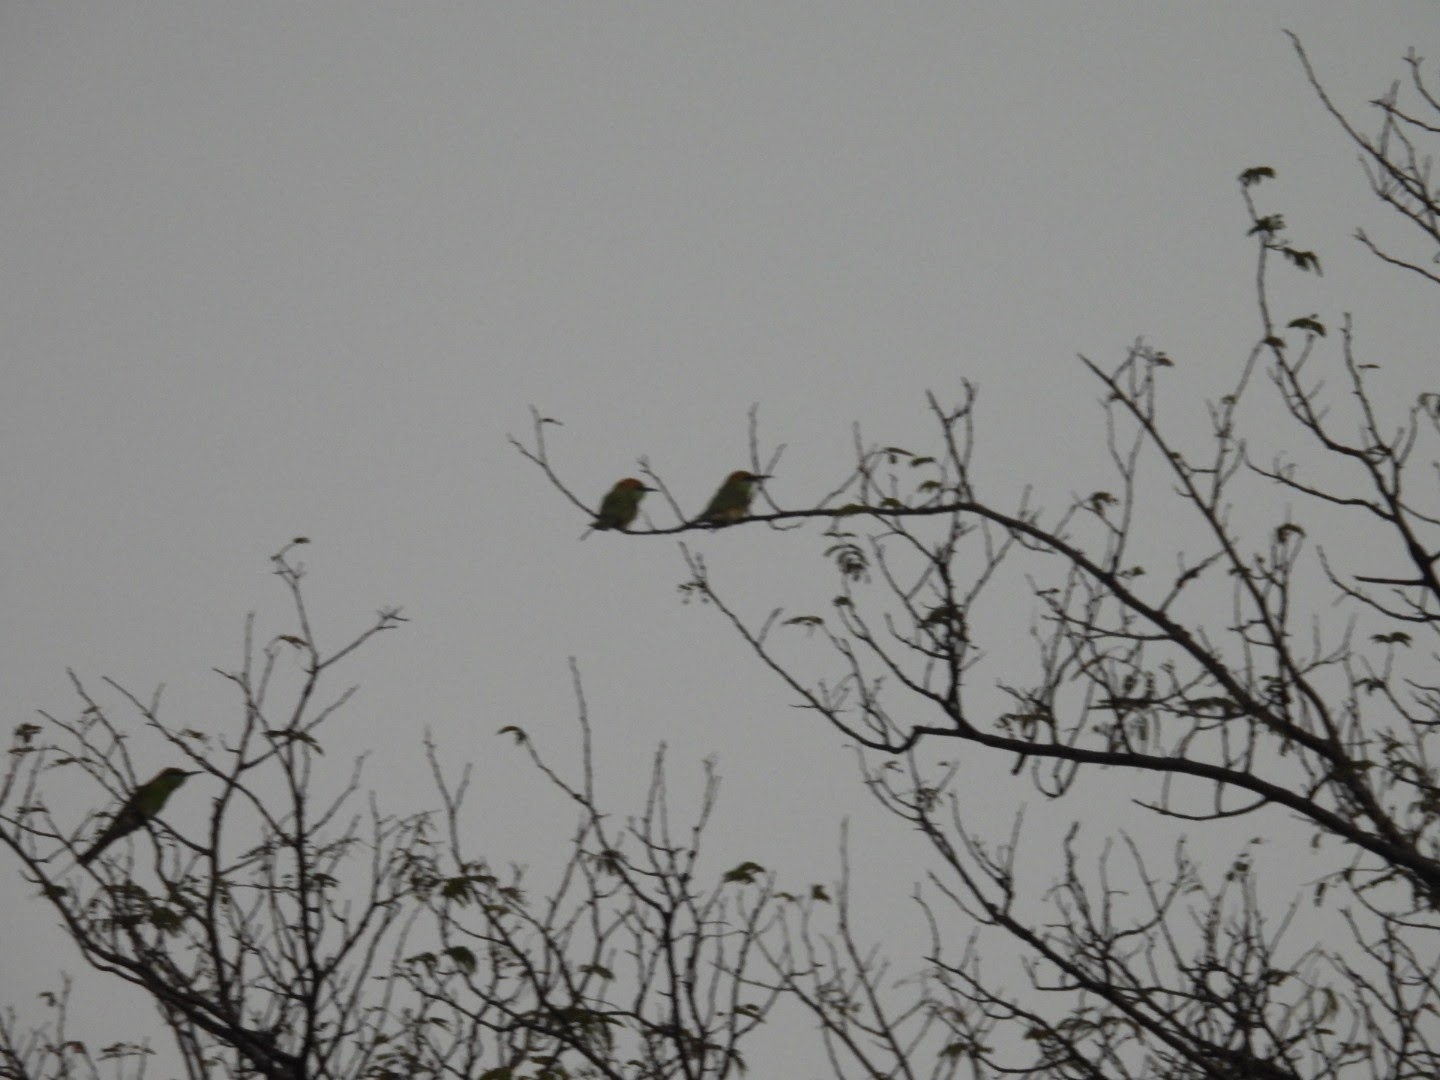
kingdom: Animalia
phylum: Chordata
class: Aves
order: Coraciiformes
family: Meropidae
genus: Merops
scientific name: Merops orientalis
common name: Green bee-eater
